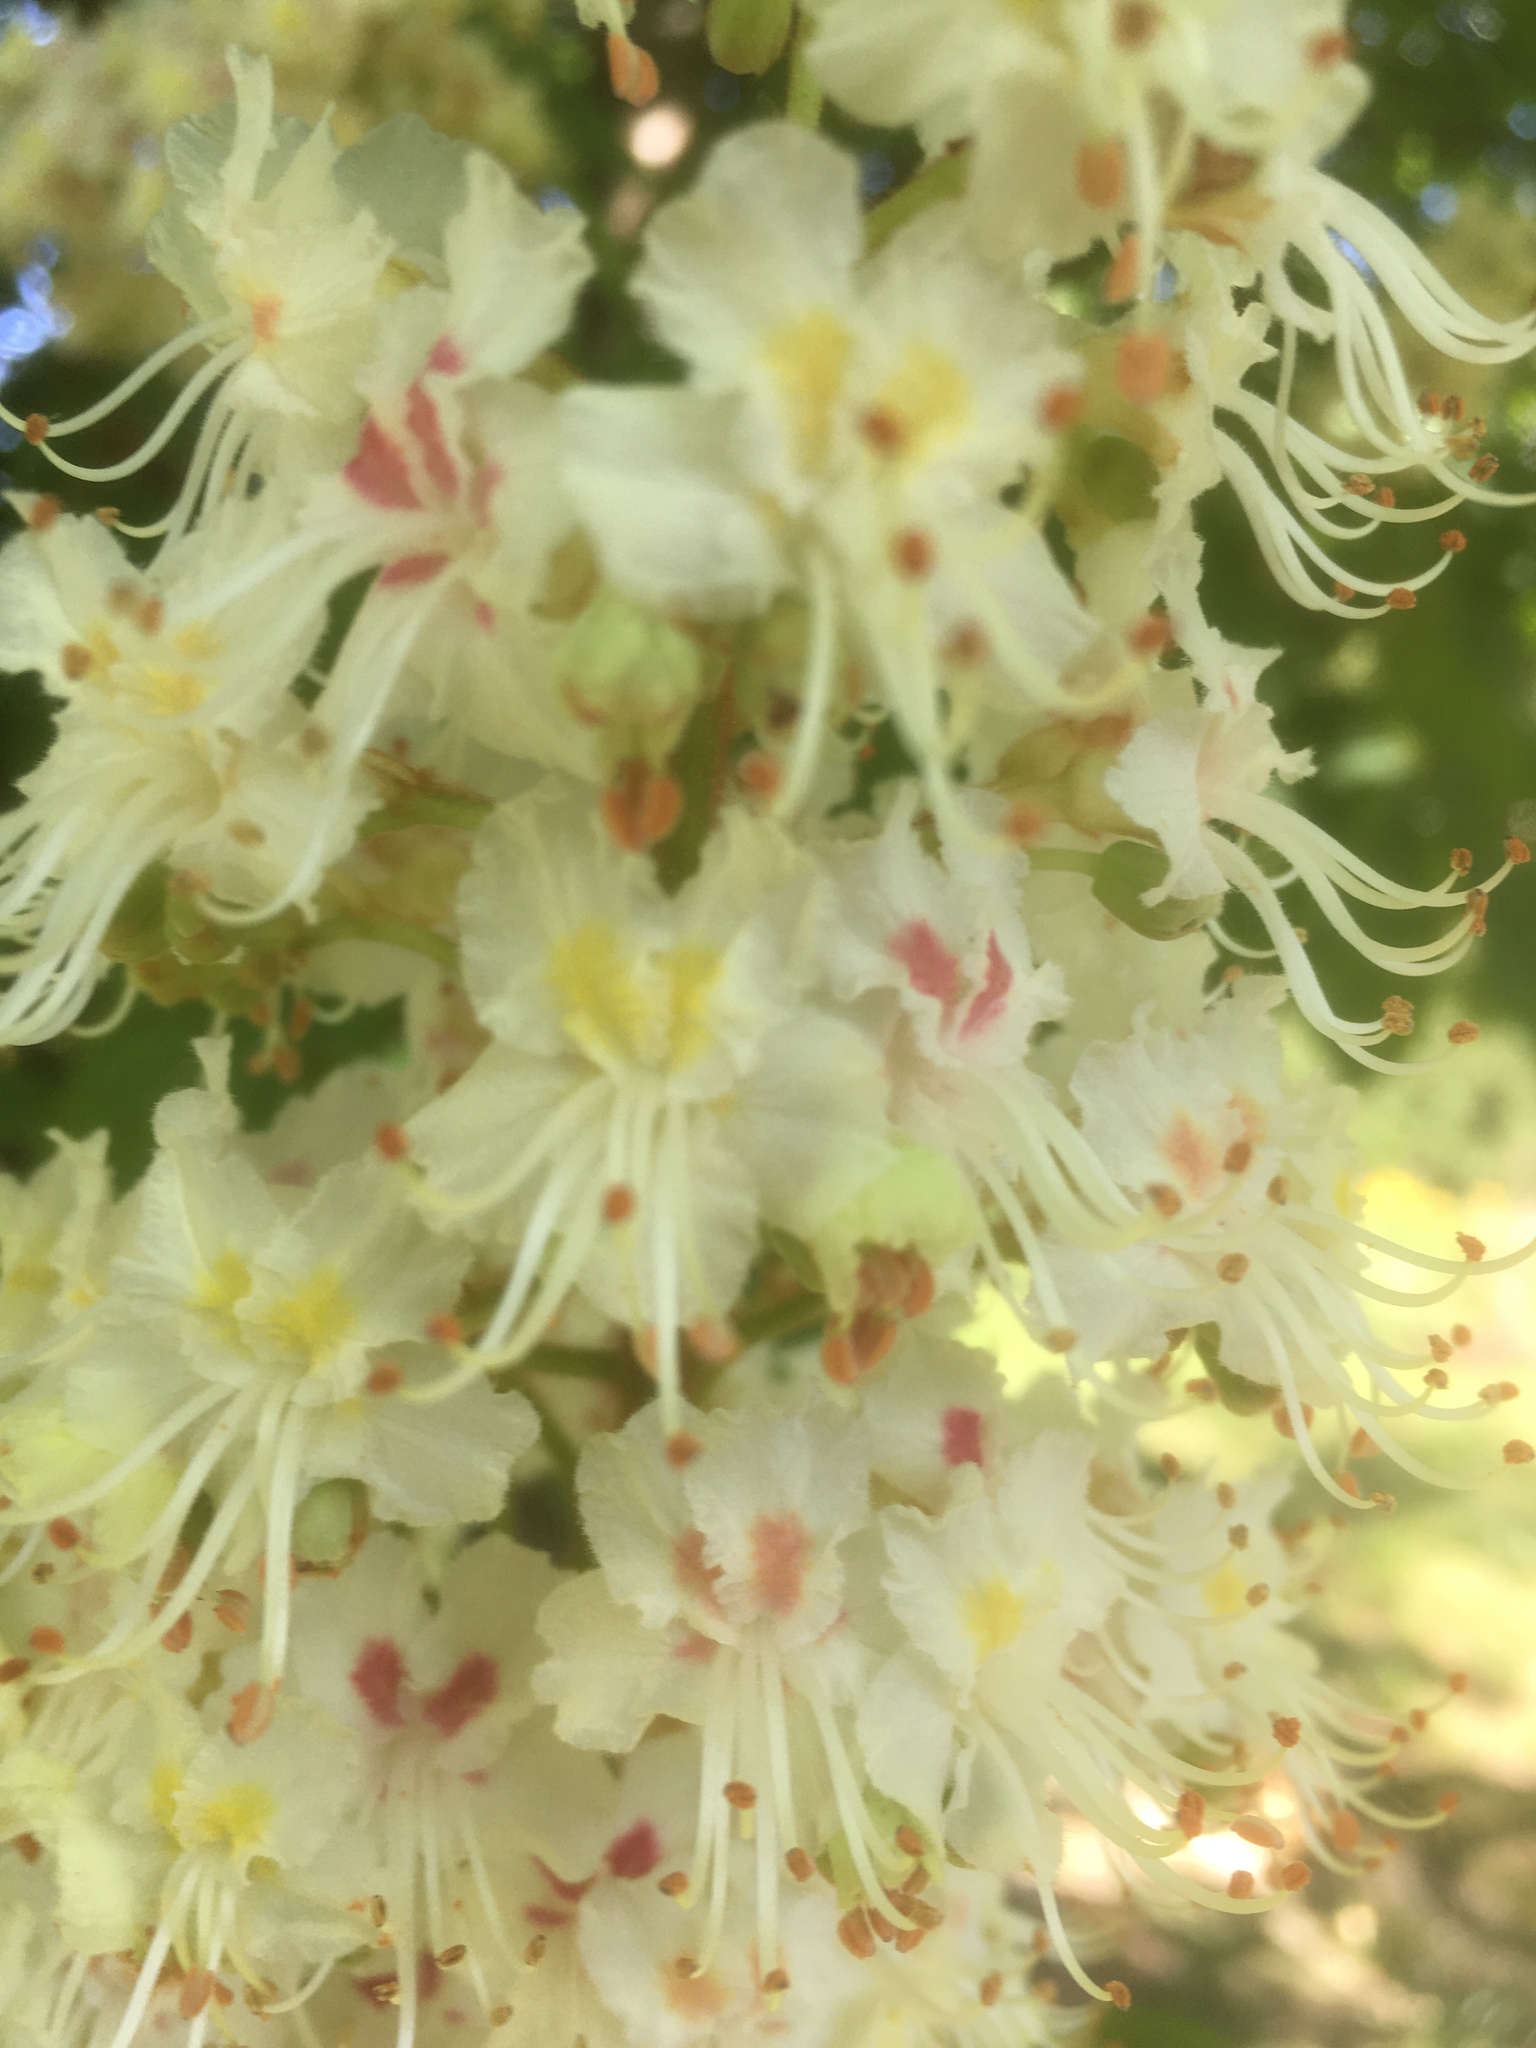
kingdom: Plantae
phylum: Tracheophyta
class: Magnoliopsida
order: Sapindales
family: Sapindaceae
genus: Aesculus
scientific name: Aesculus hippocastanum
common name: Horse-chestnut
